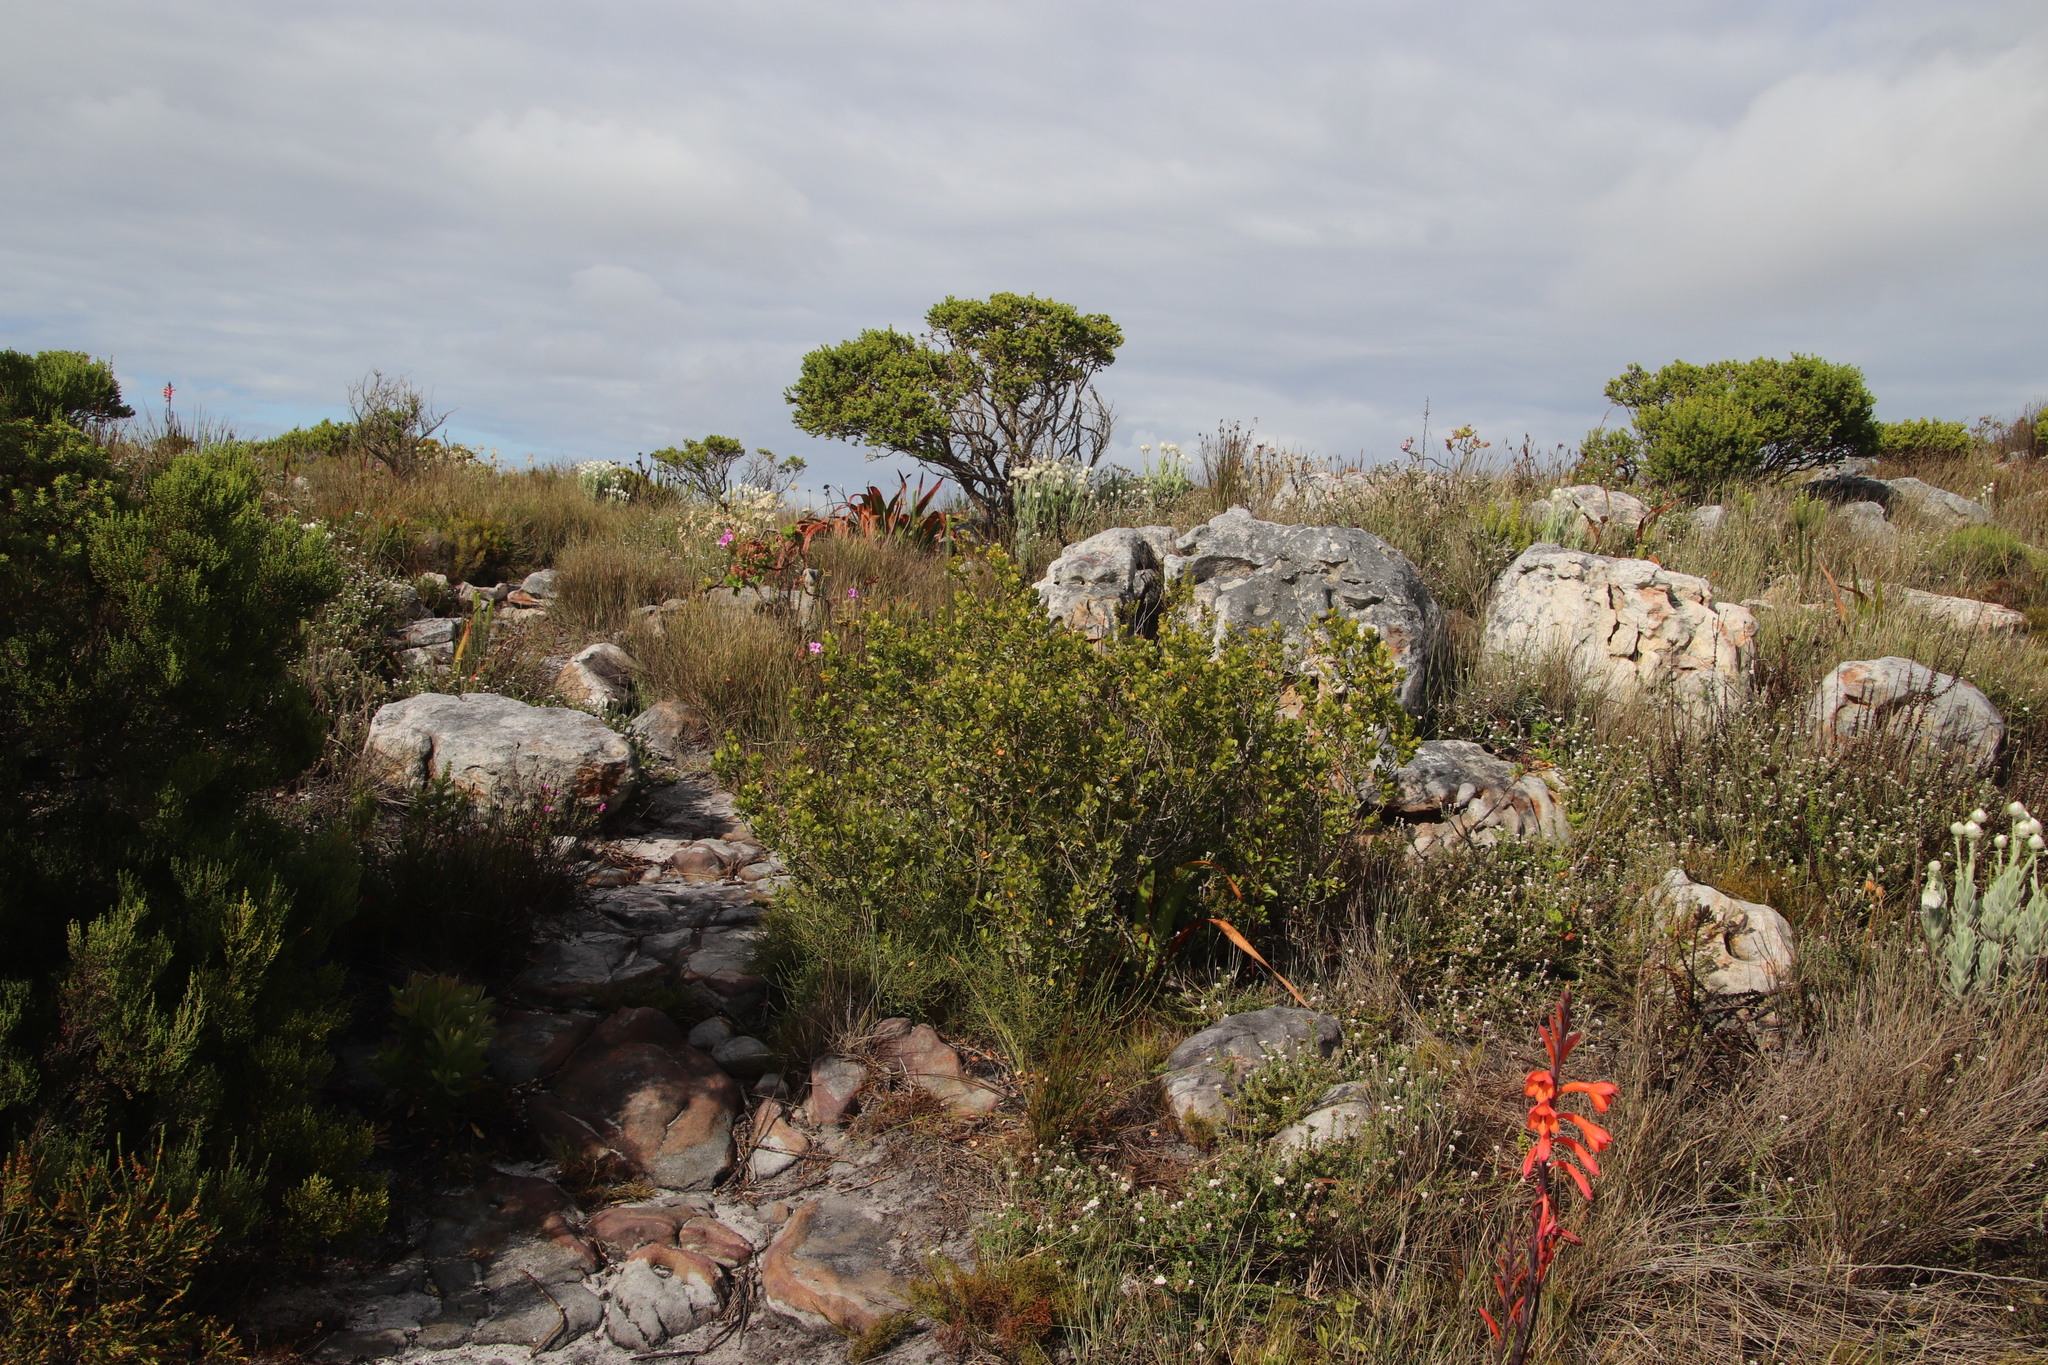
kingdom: Plantae
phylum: Tracheophyta
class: Magnoliopsida
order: Sapindales
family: Anacardiaceae
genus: Searsia
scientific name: Searsia lucida
